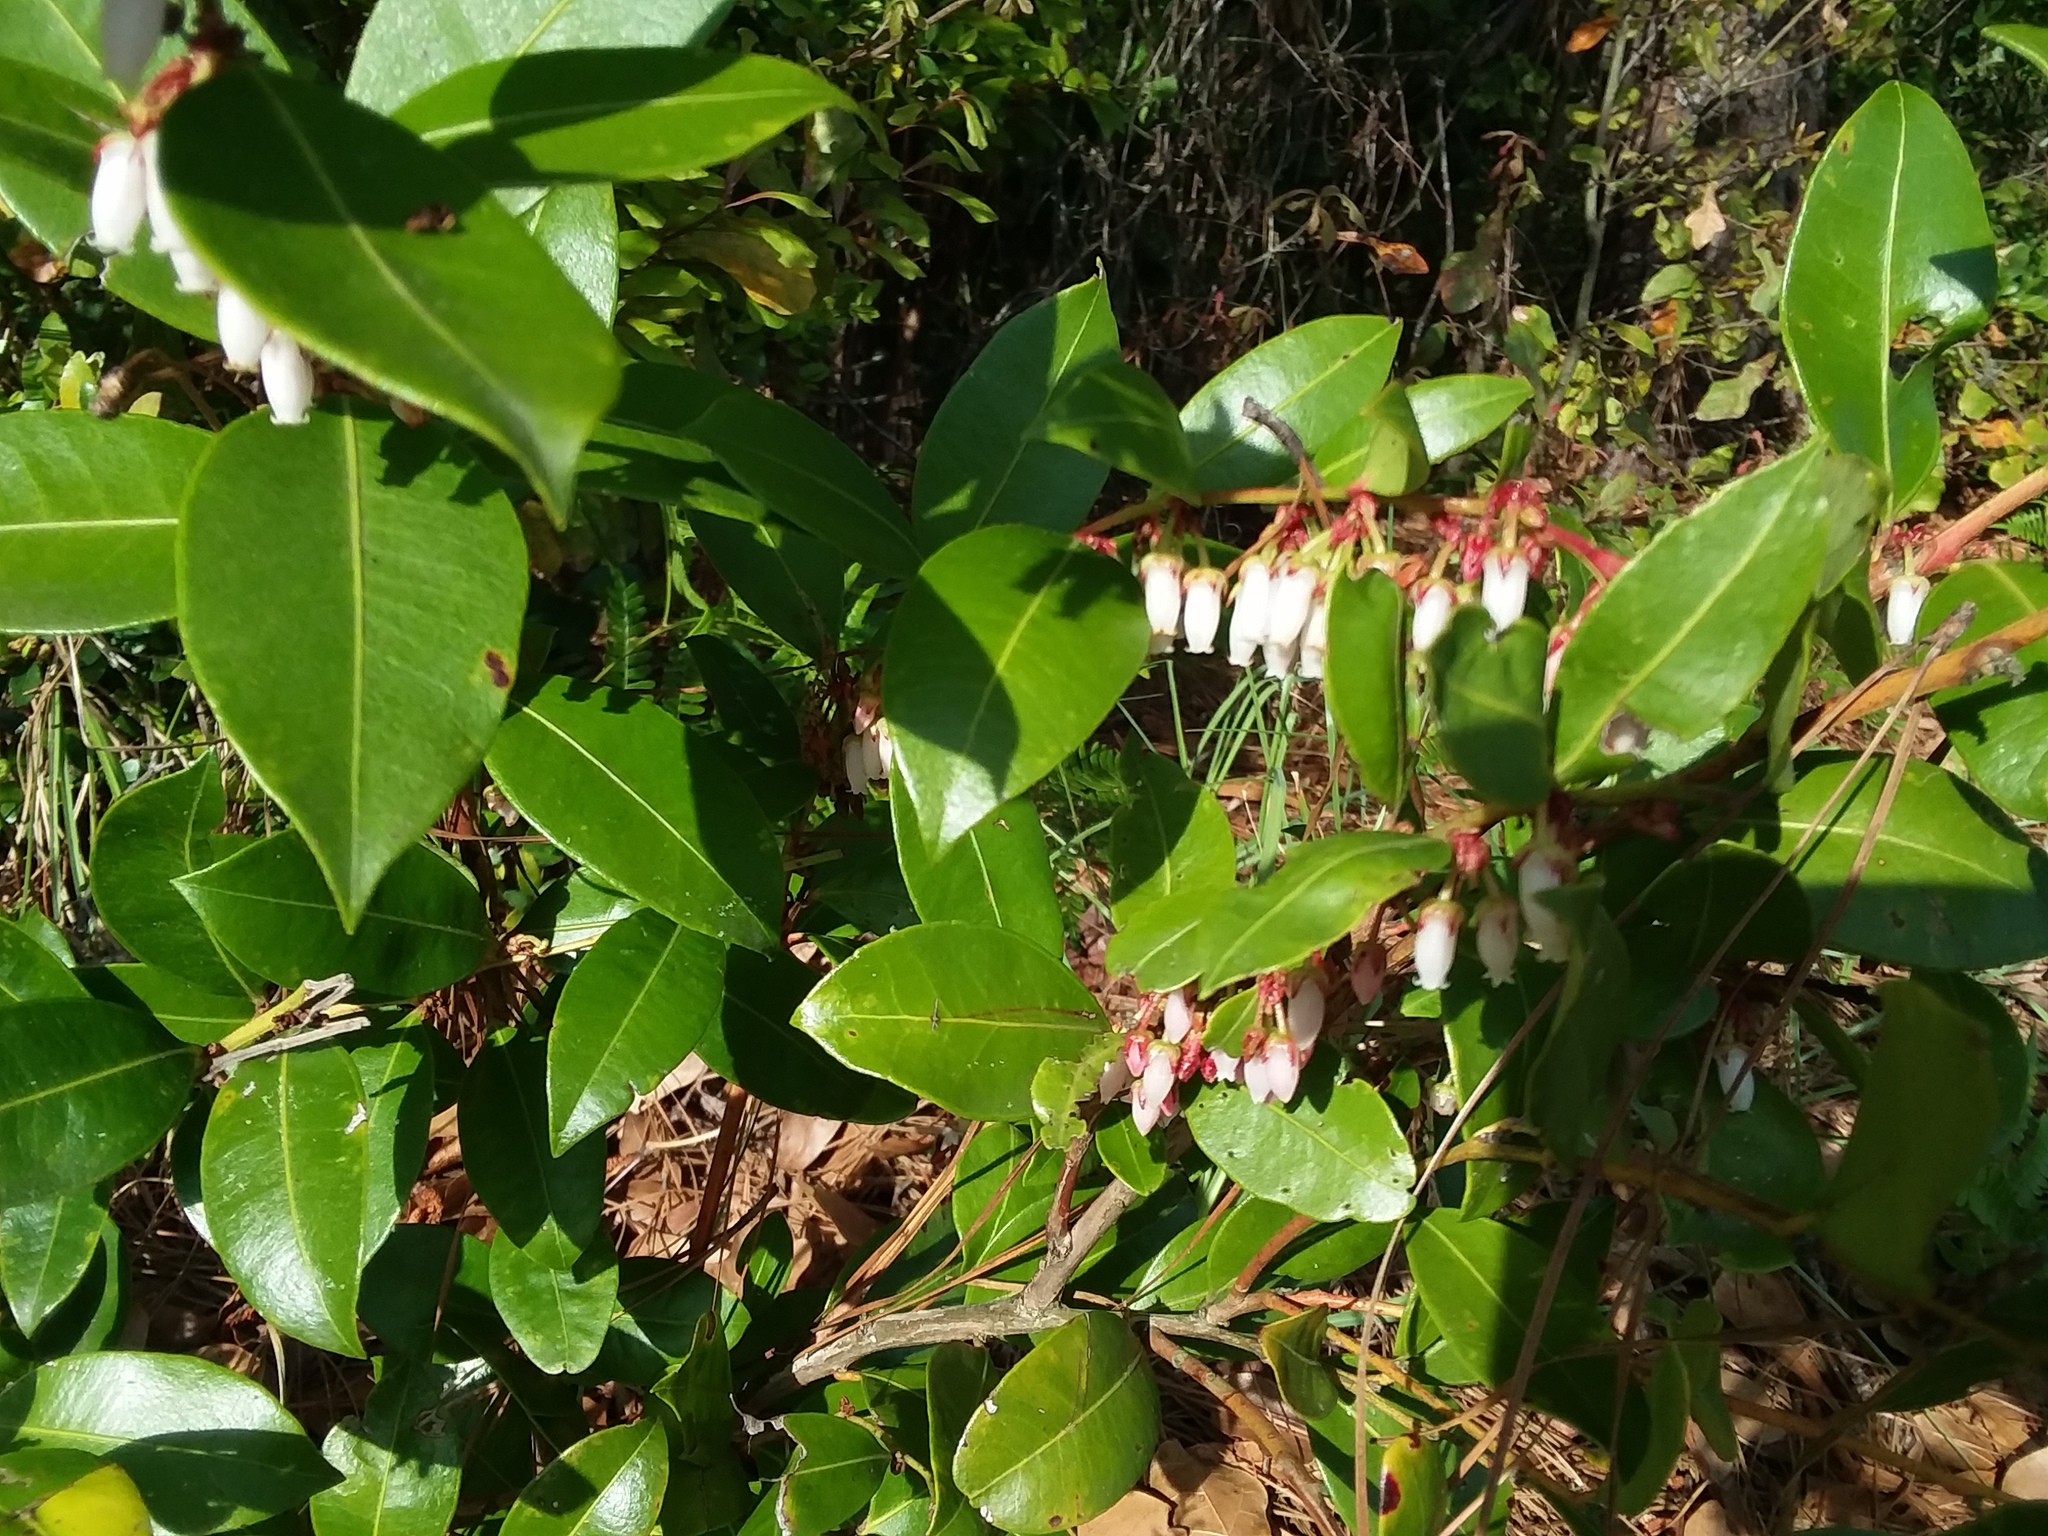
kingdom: Plantae
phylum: Tracheophyta
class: Magnoliopsida
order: Ericales
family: Ericaceae
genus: Lyonia
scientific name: Lyonia lucida
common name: Fetterbush
